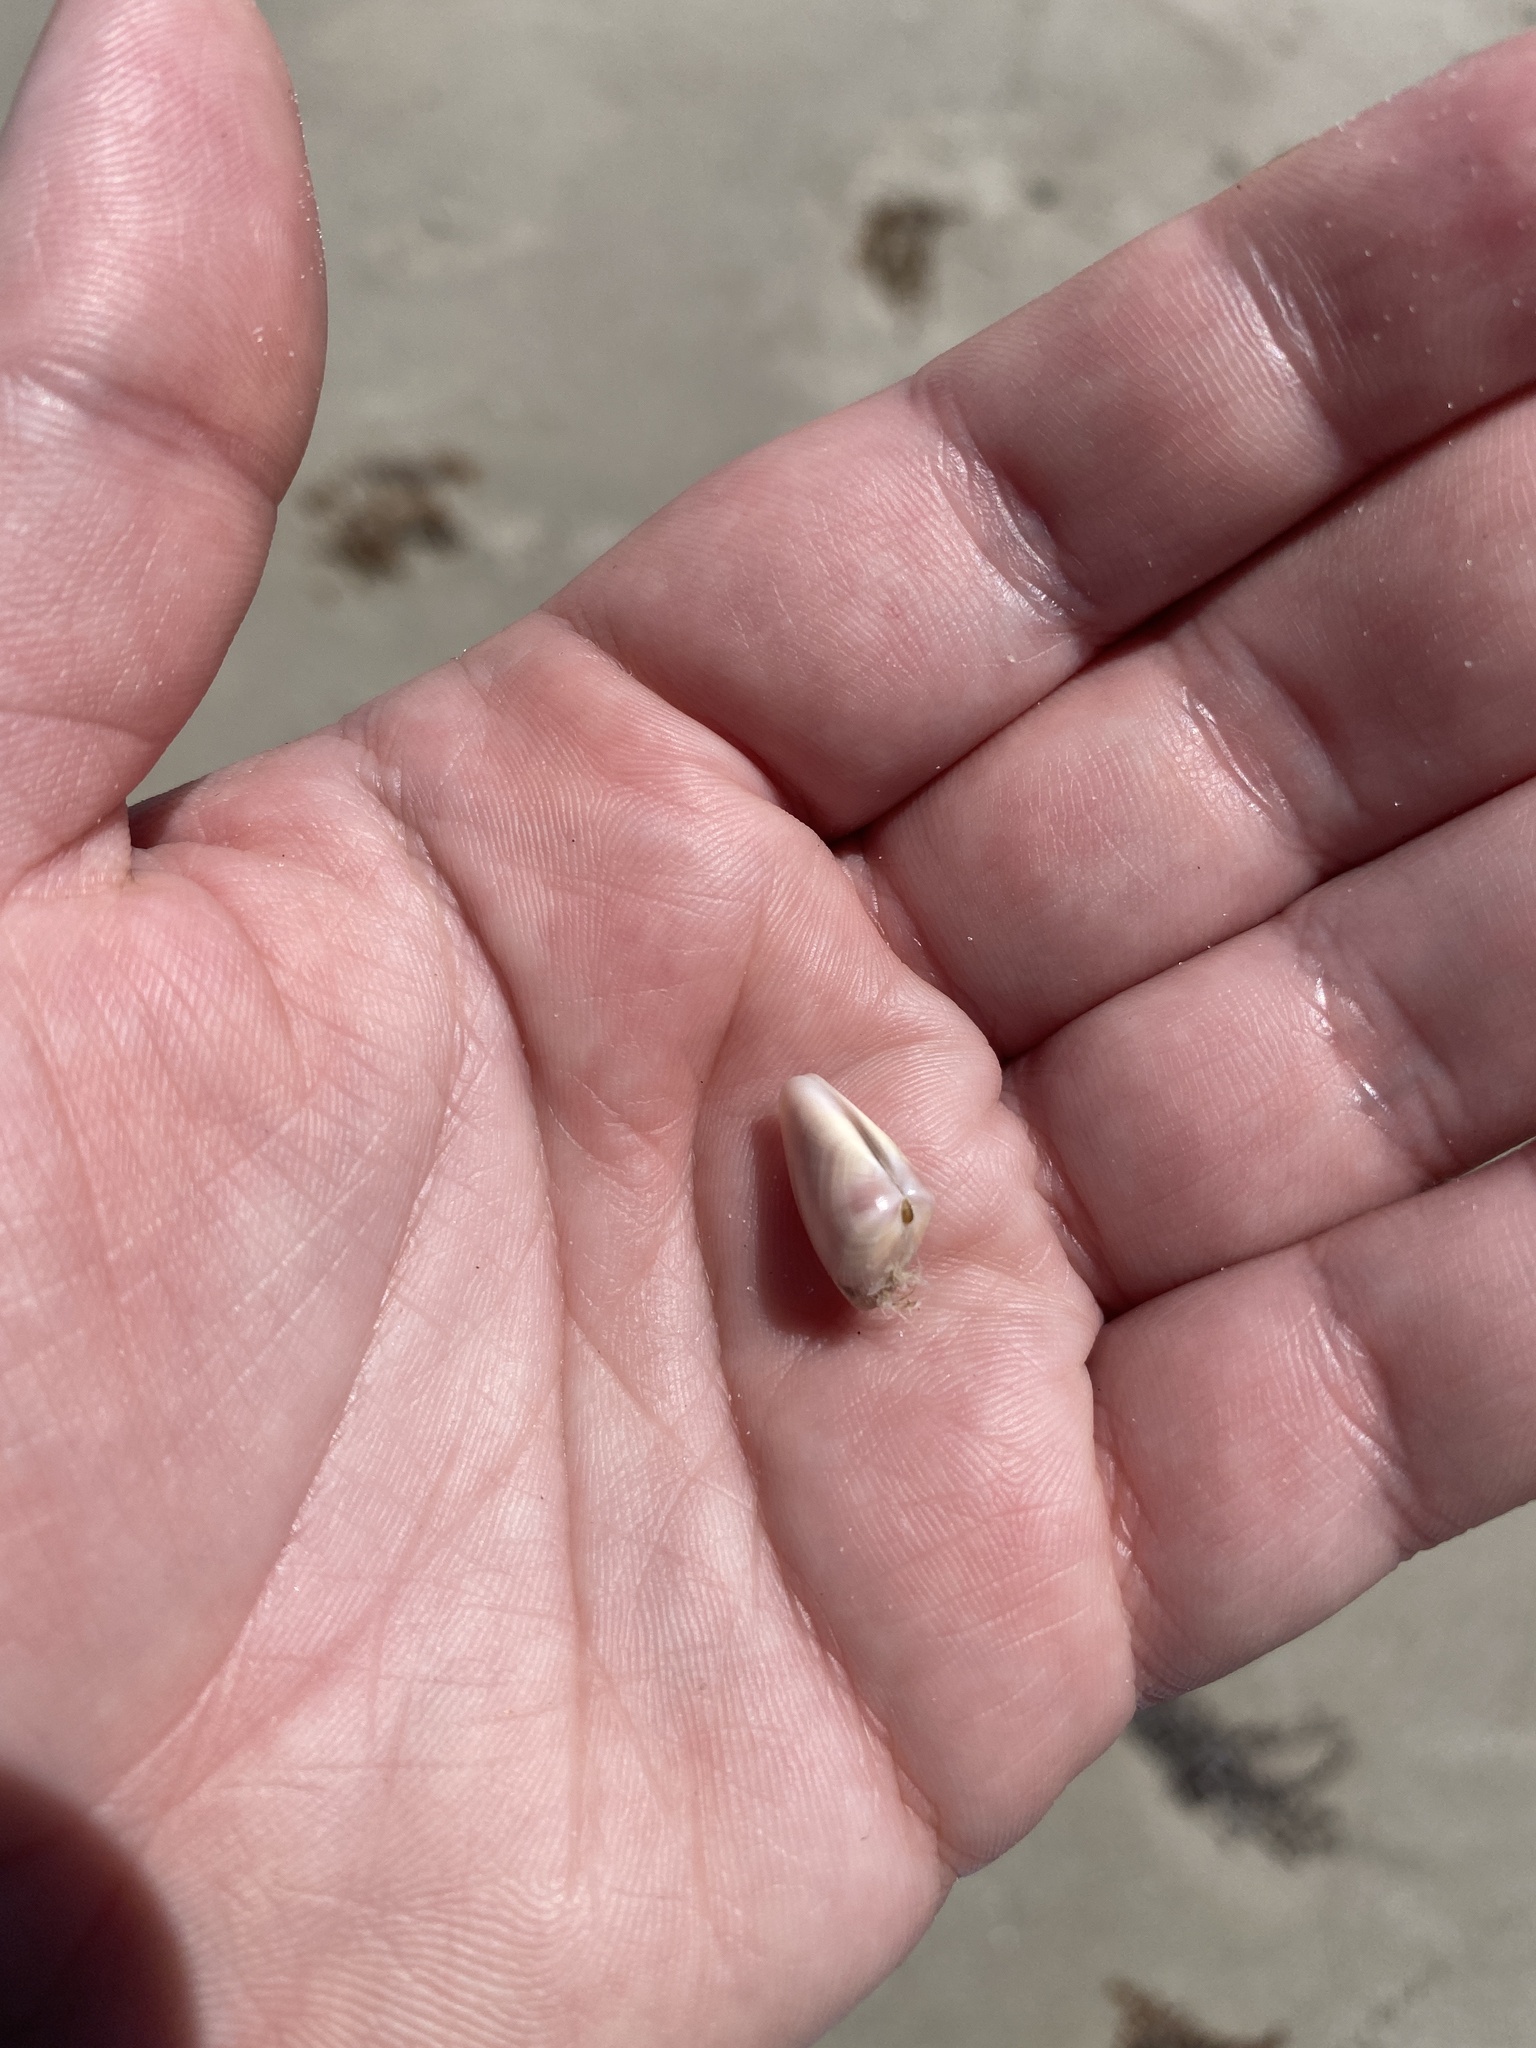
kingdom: Animalia
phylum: Mollusca
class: Bivalvia
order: Cardiida
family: Donacidae
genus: Donax
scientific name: Donax variabilis
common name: Butterfly shell
